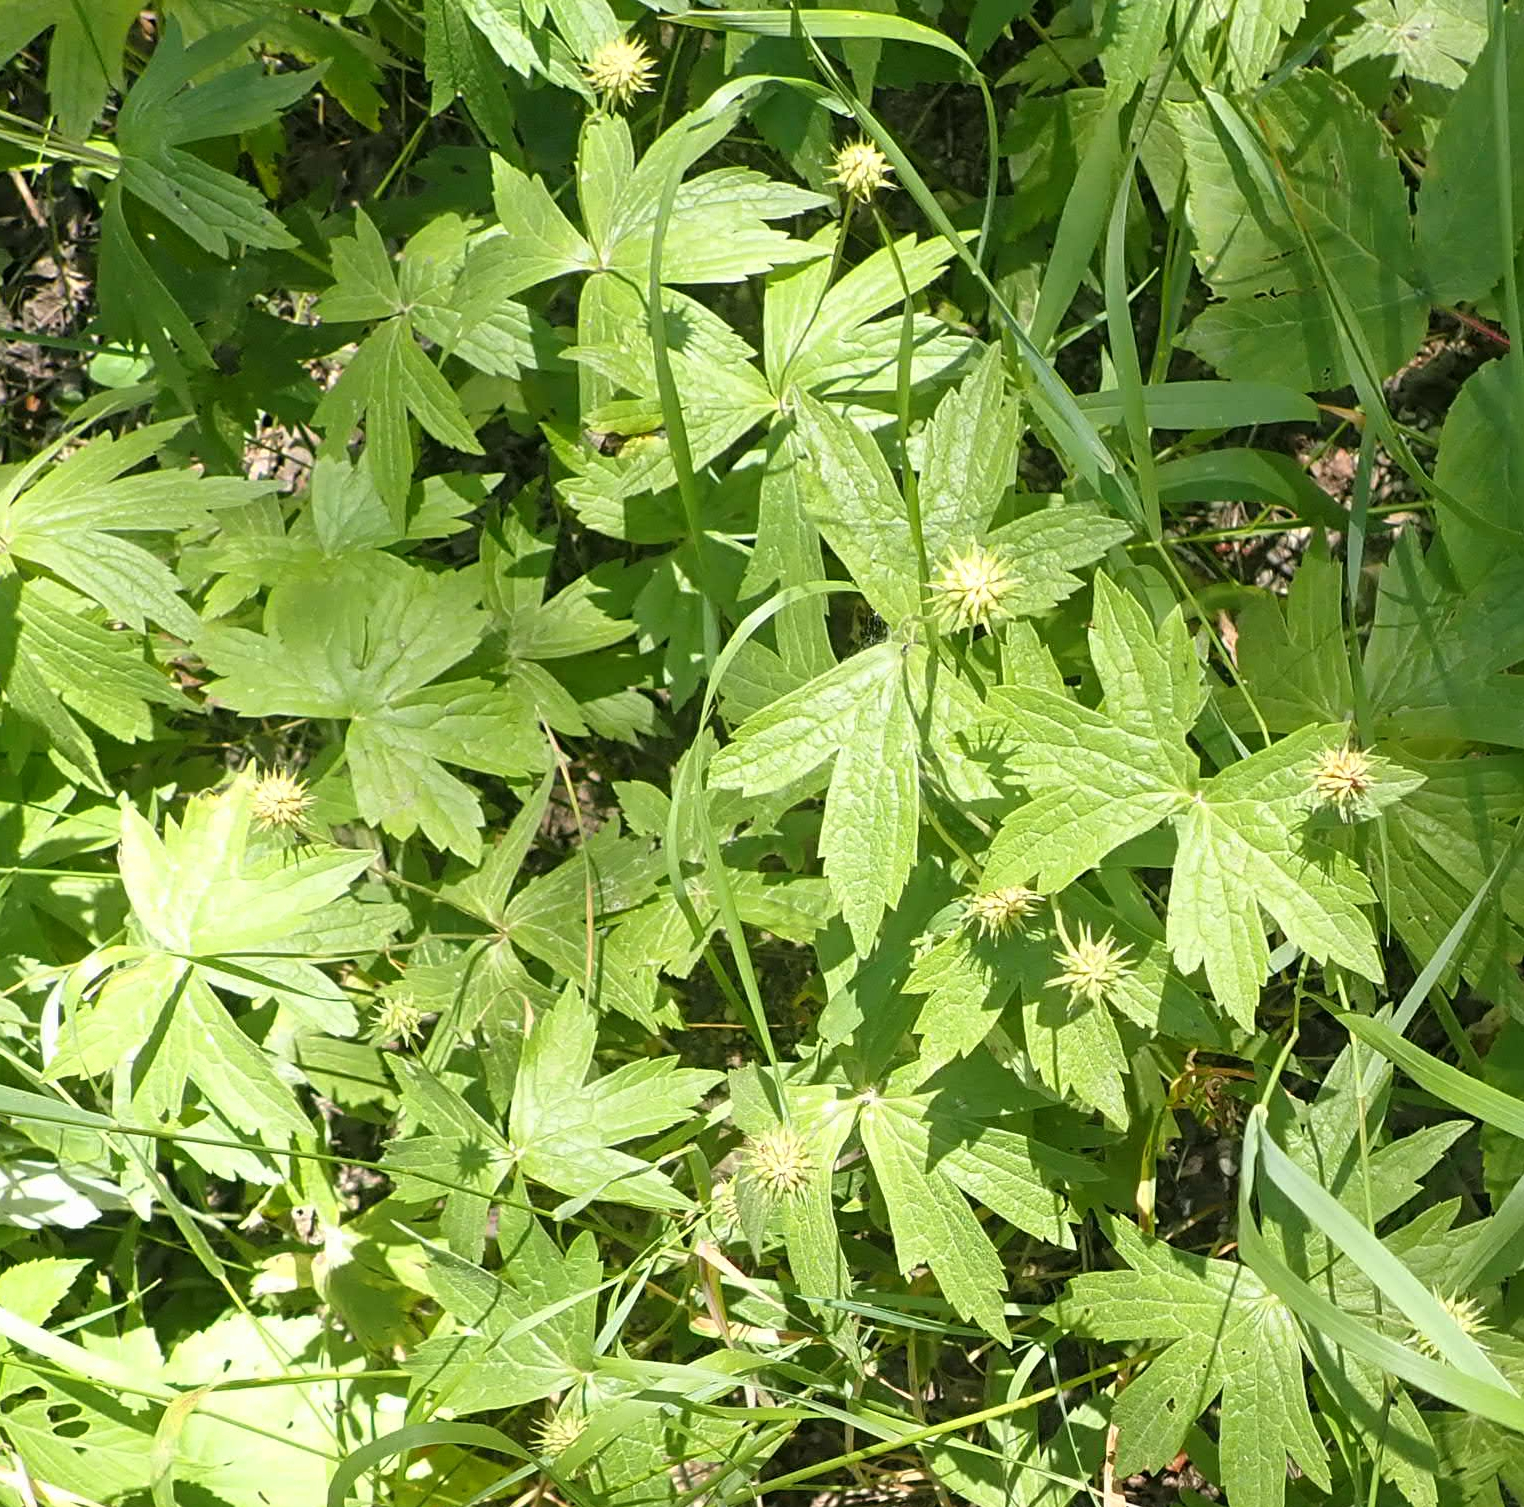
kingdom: Plantae
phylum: Tracheophyta
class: Magnoliopsida
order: Ranunculales
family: Ranunculaceae
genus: Anemonastrum
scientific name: Anemonastrum canadense
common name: Canada anemone
